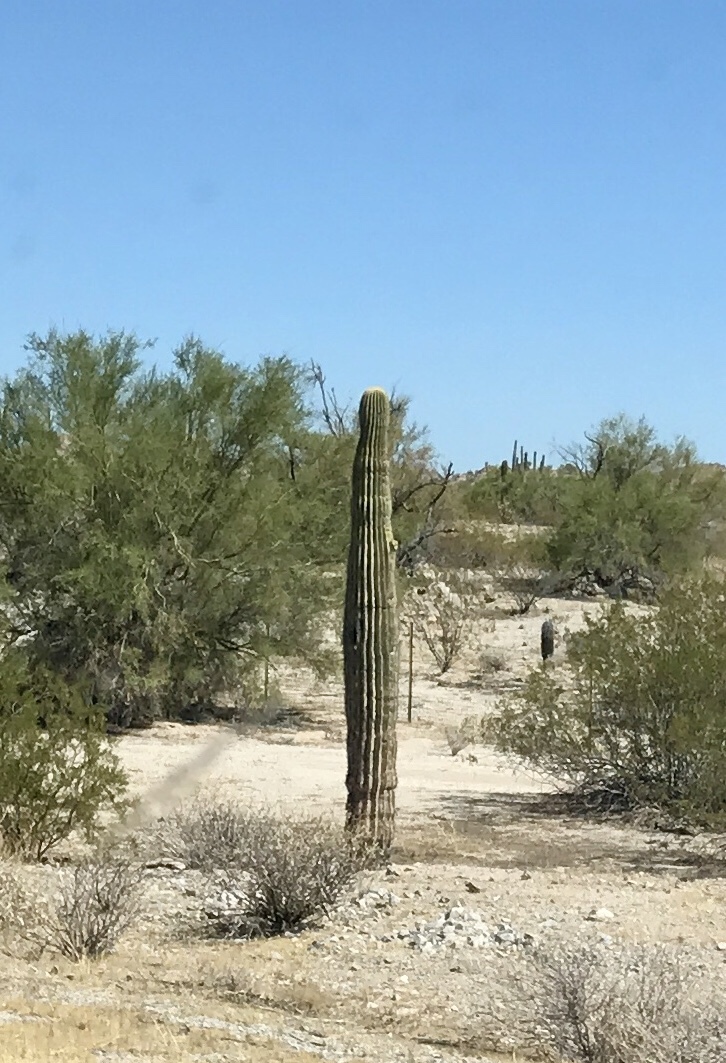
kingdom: Plantae
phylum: Tracheophyta
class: Magnoliopsida
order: Caryophyllales
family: Cactaceae
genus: Carnegiea
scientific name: Carnegiea gigantea
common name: Saguaro
